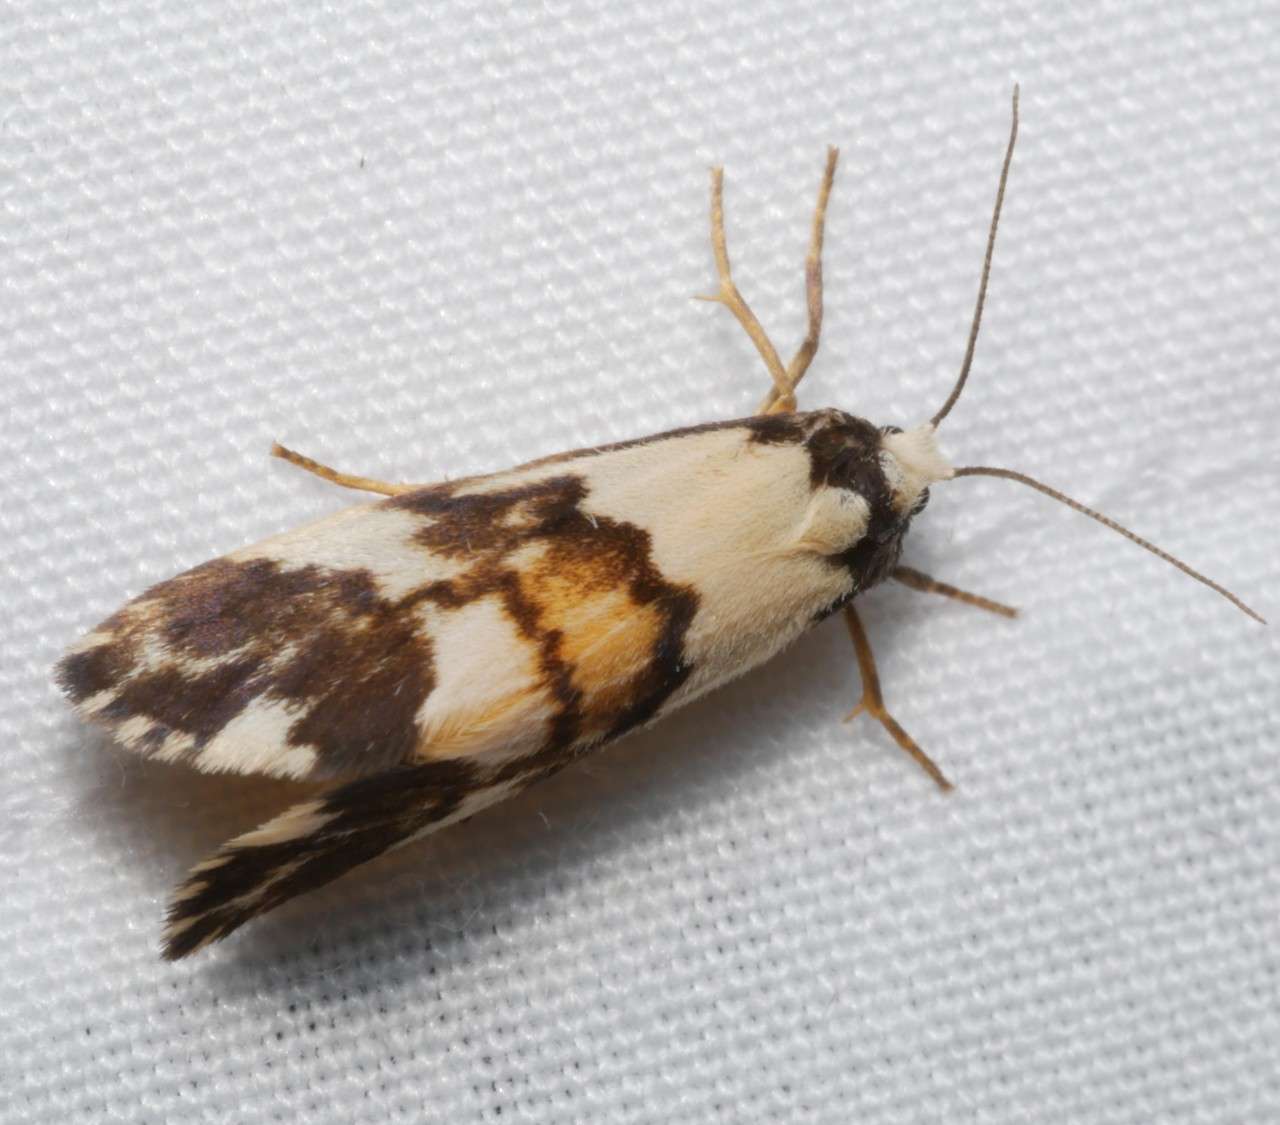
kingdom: Animalia
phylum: Arthropoda
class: Insecta
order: Lepidoptera
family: Erebidae
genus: Philenora
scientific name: Philenora aspectalella
